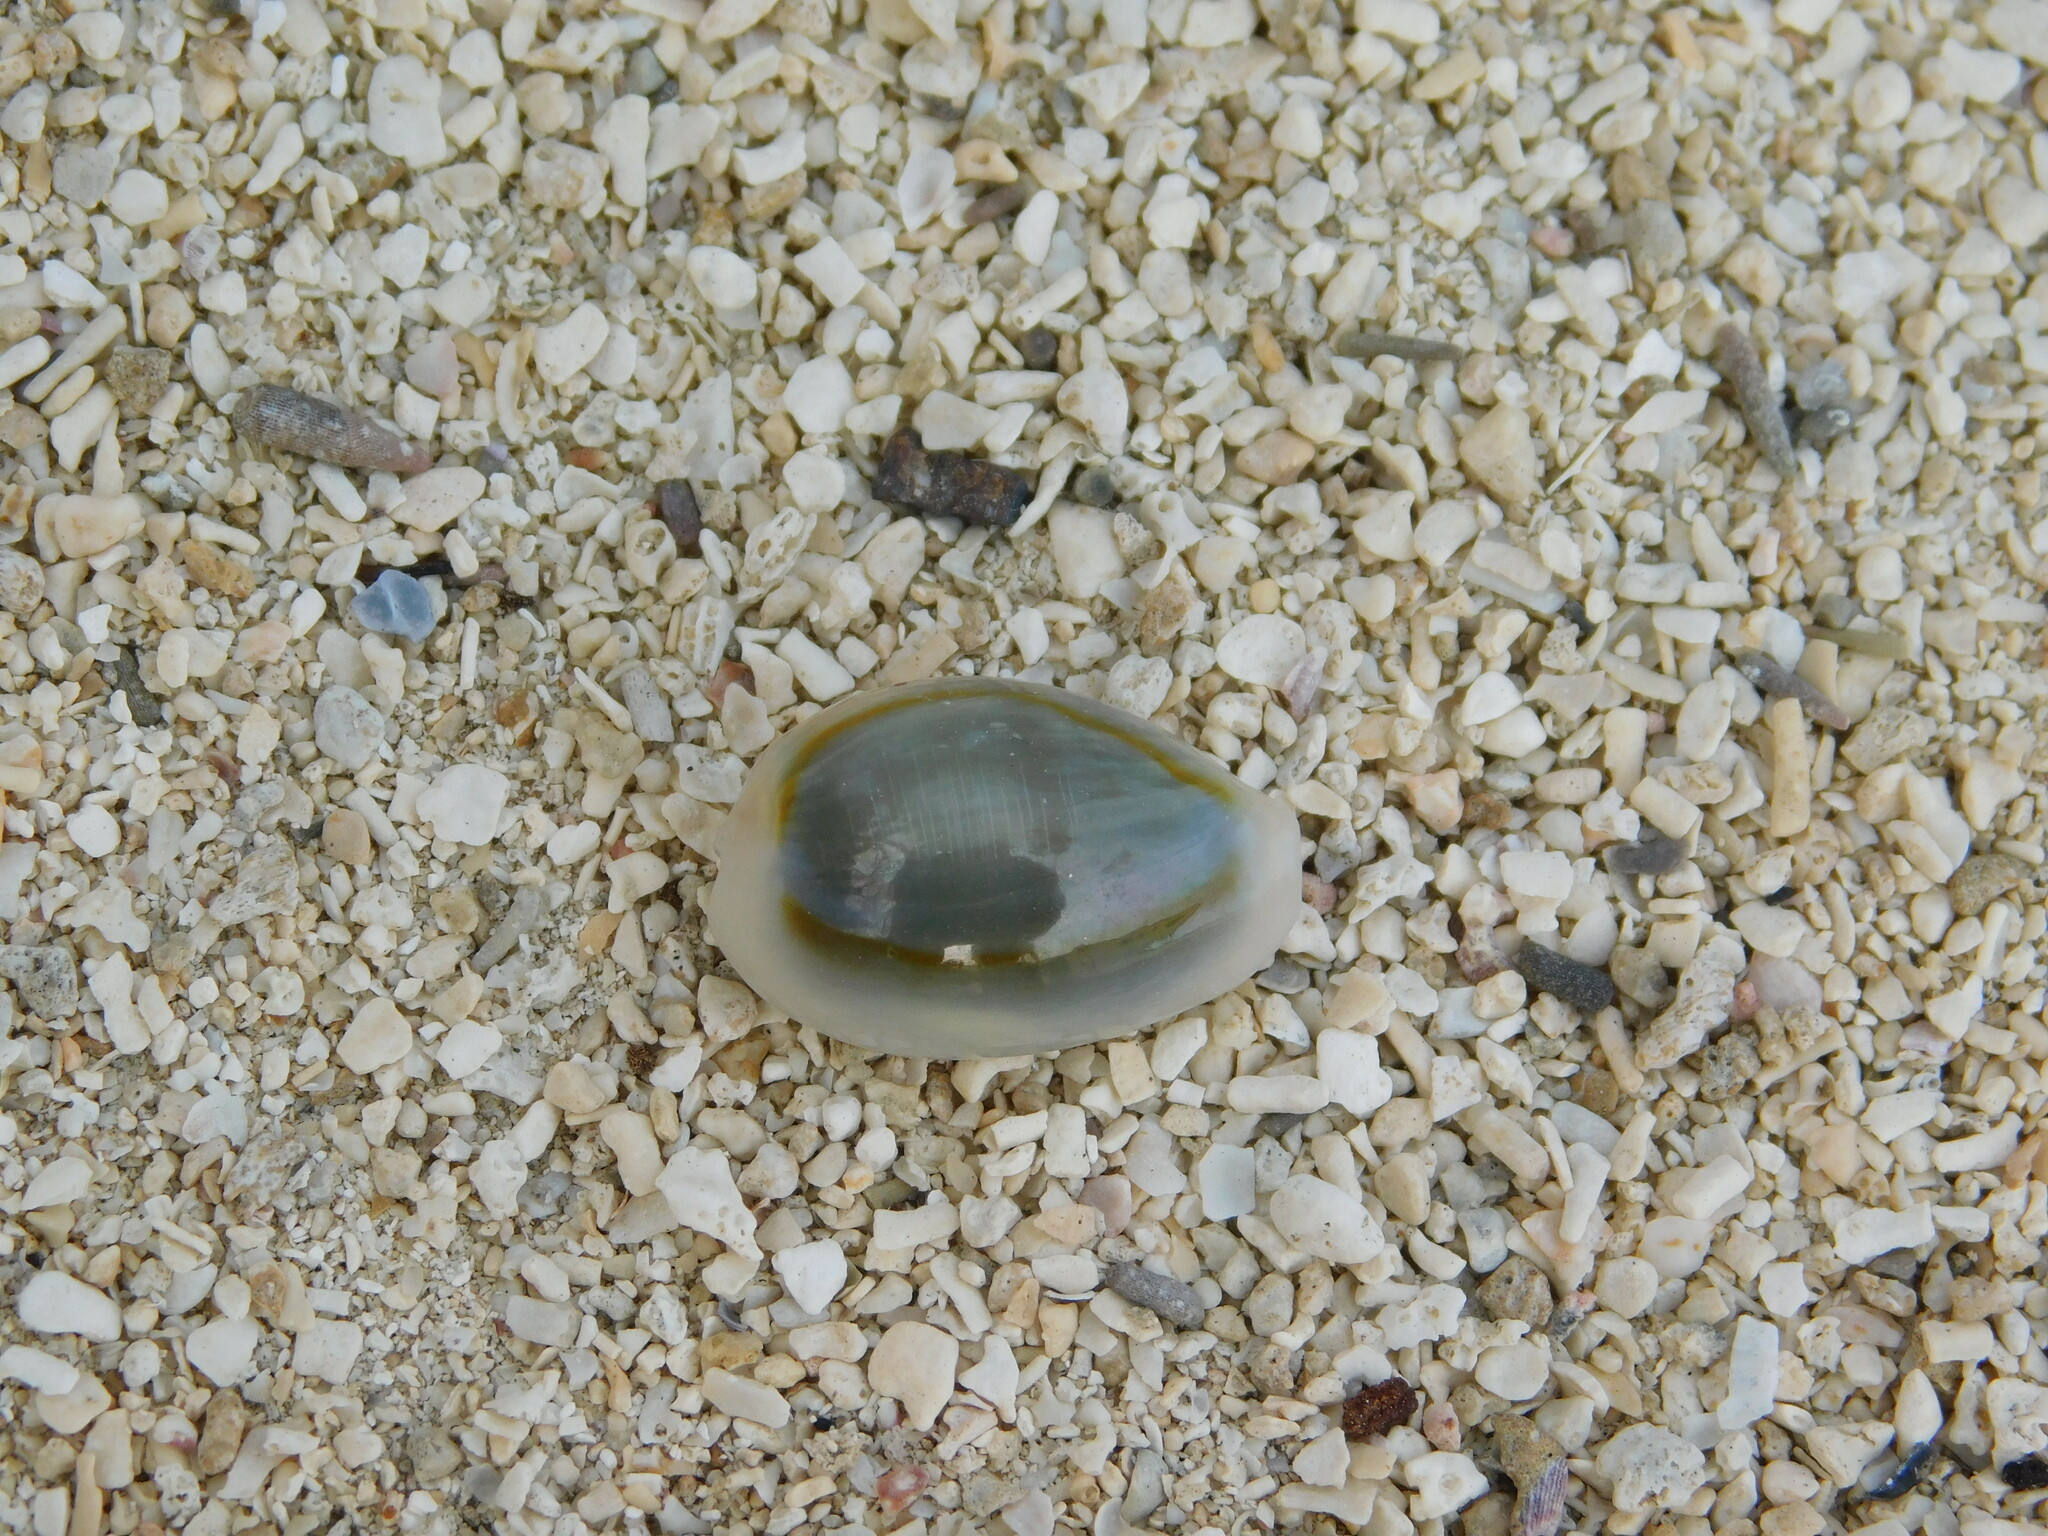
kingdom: Animalia
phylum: Mollusca
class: Gastropoda
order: Littorinimorpha
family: Cypraeidae
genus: Monetaria
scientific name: Monetaria annulus
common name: Ring cowrie
